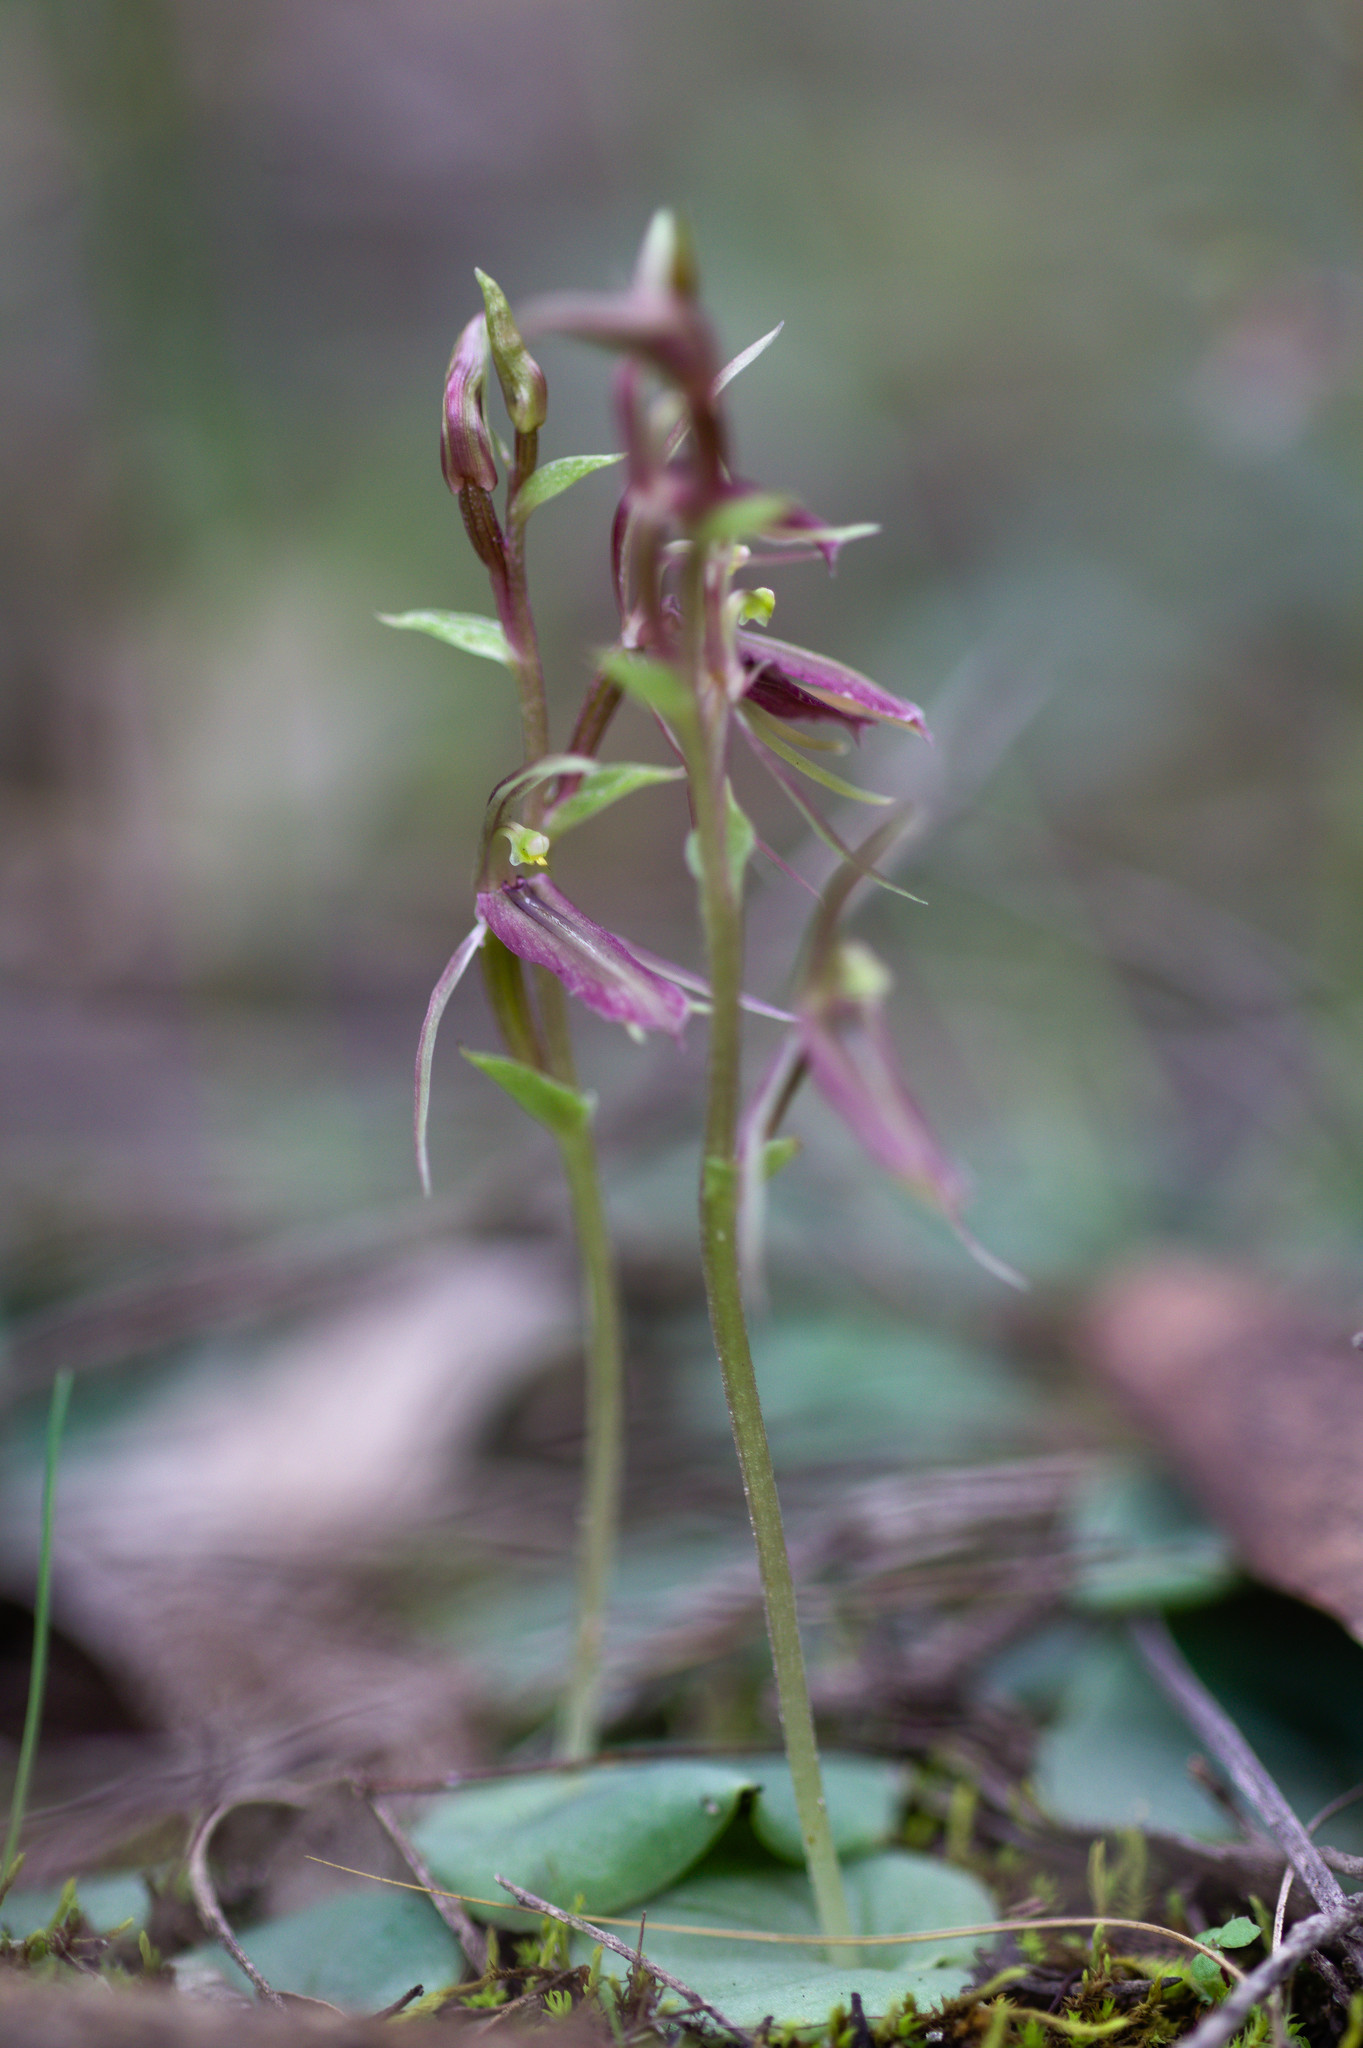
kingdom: Plantae
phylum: Tracheophyta
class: Liliopsida
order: Asparagales
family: Orchidaceae
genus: Cyrtostylis
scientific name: Cyrtostylis huegelii
